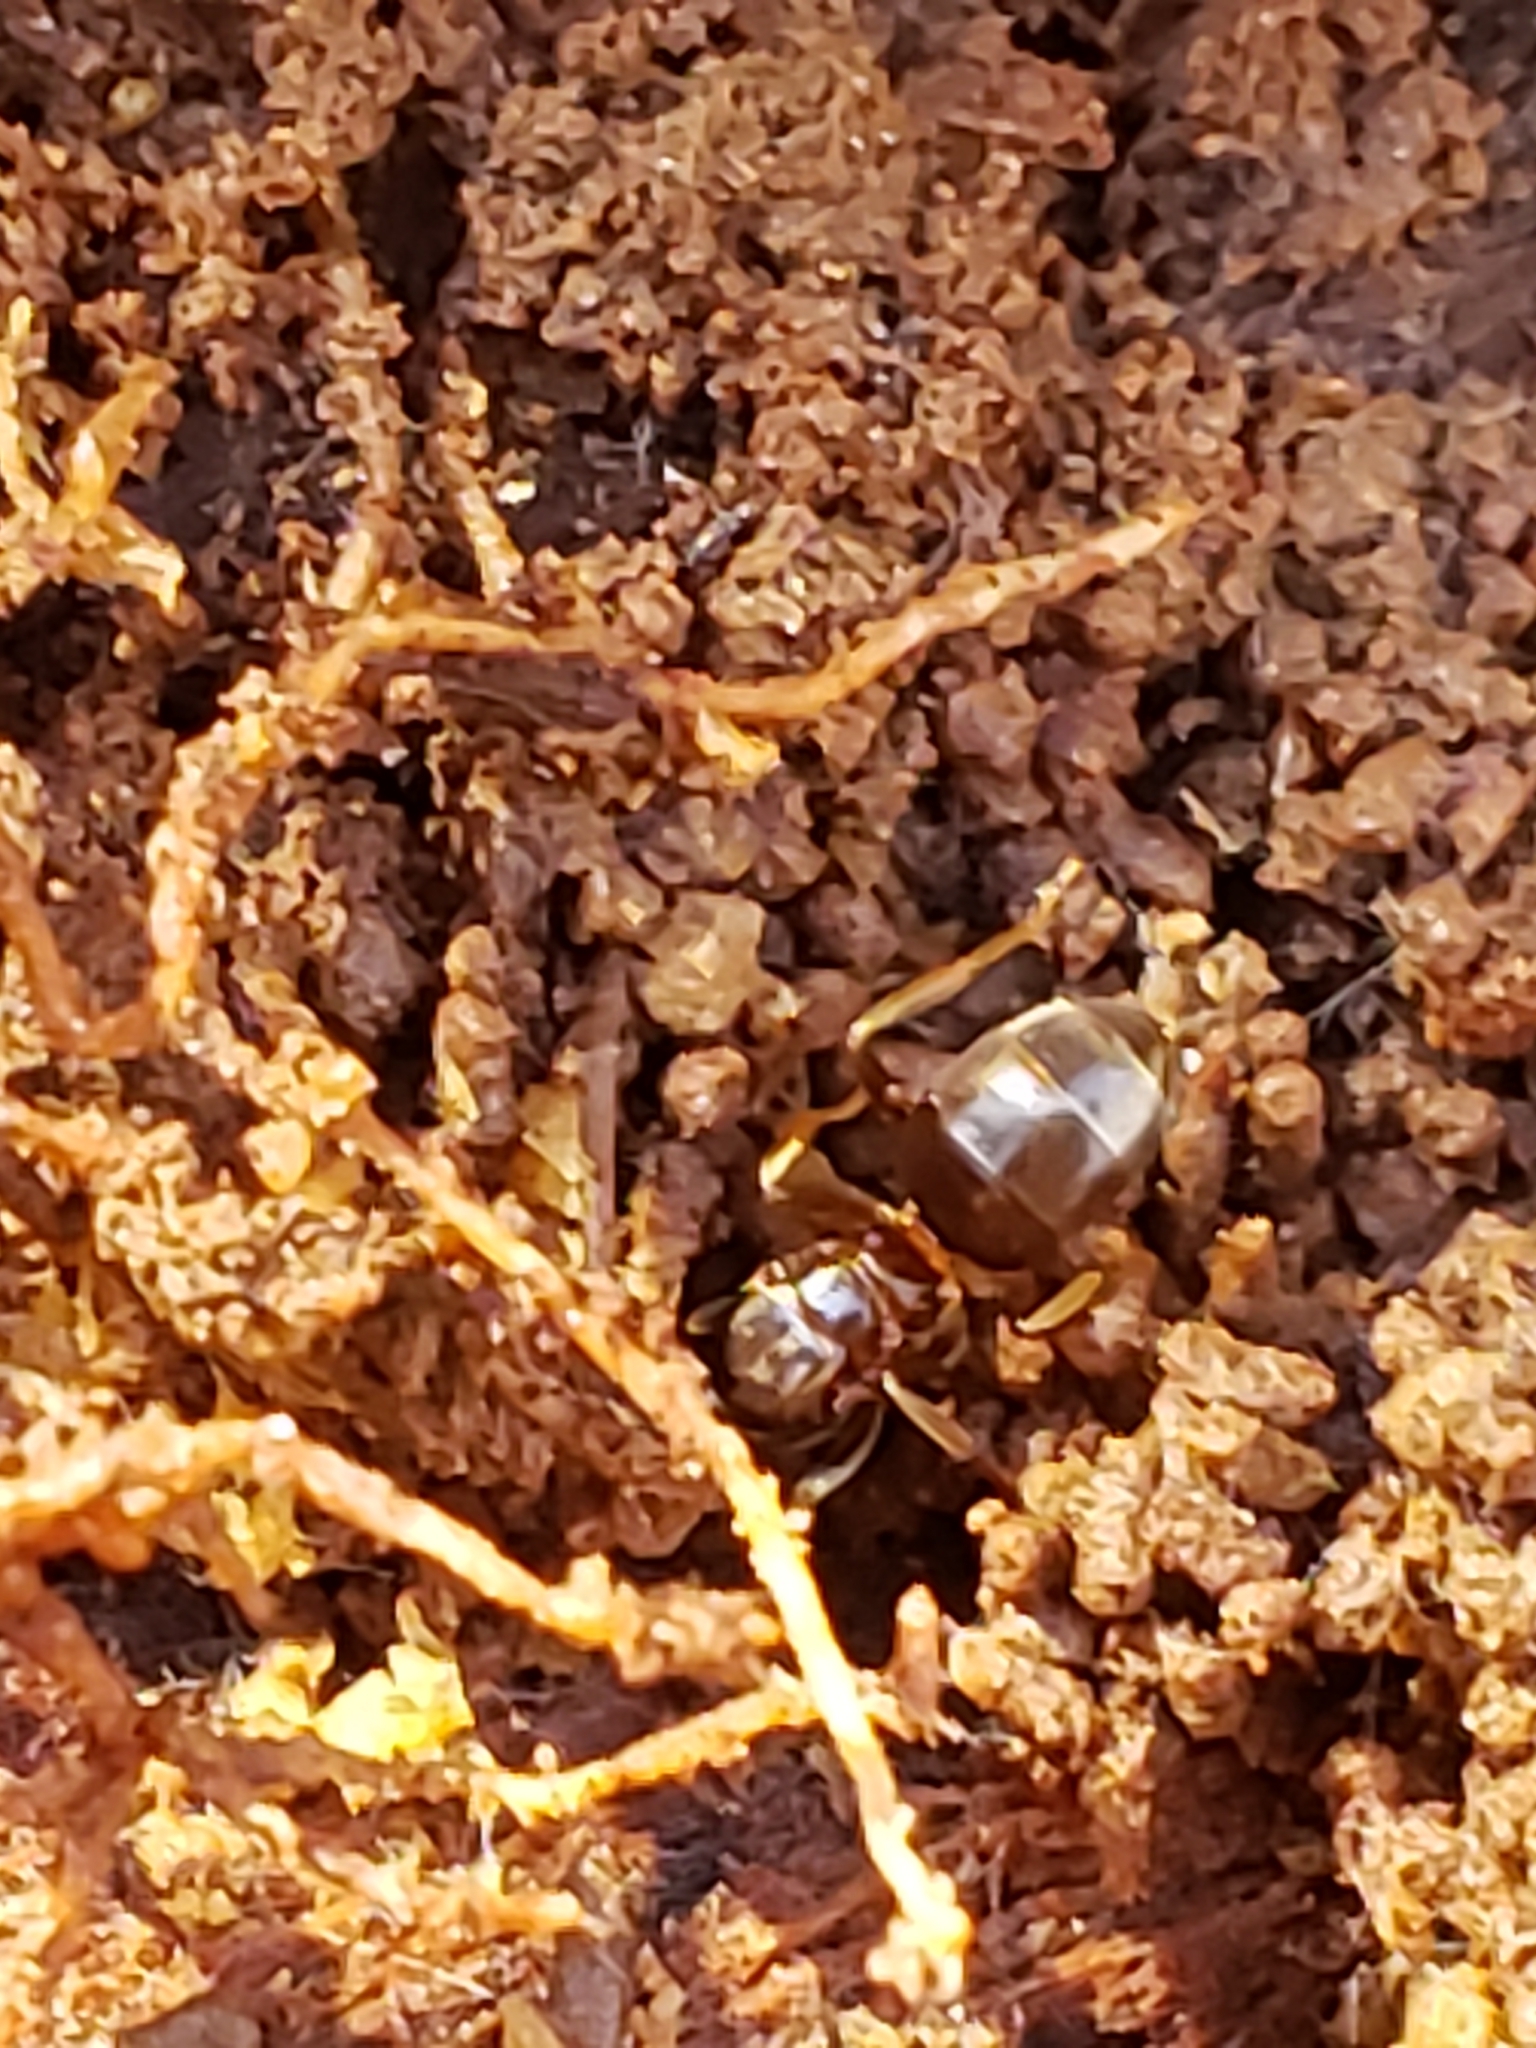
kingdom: Animalia
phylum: Arthropoda
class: Insecta
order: Hymenoptera
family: Formicidae
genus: Lasius
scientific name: Lasius aphidicola
